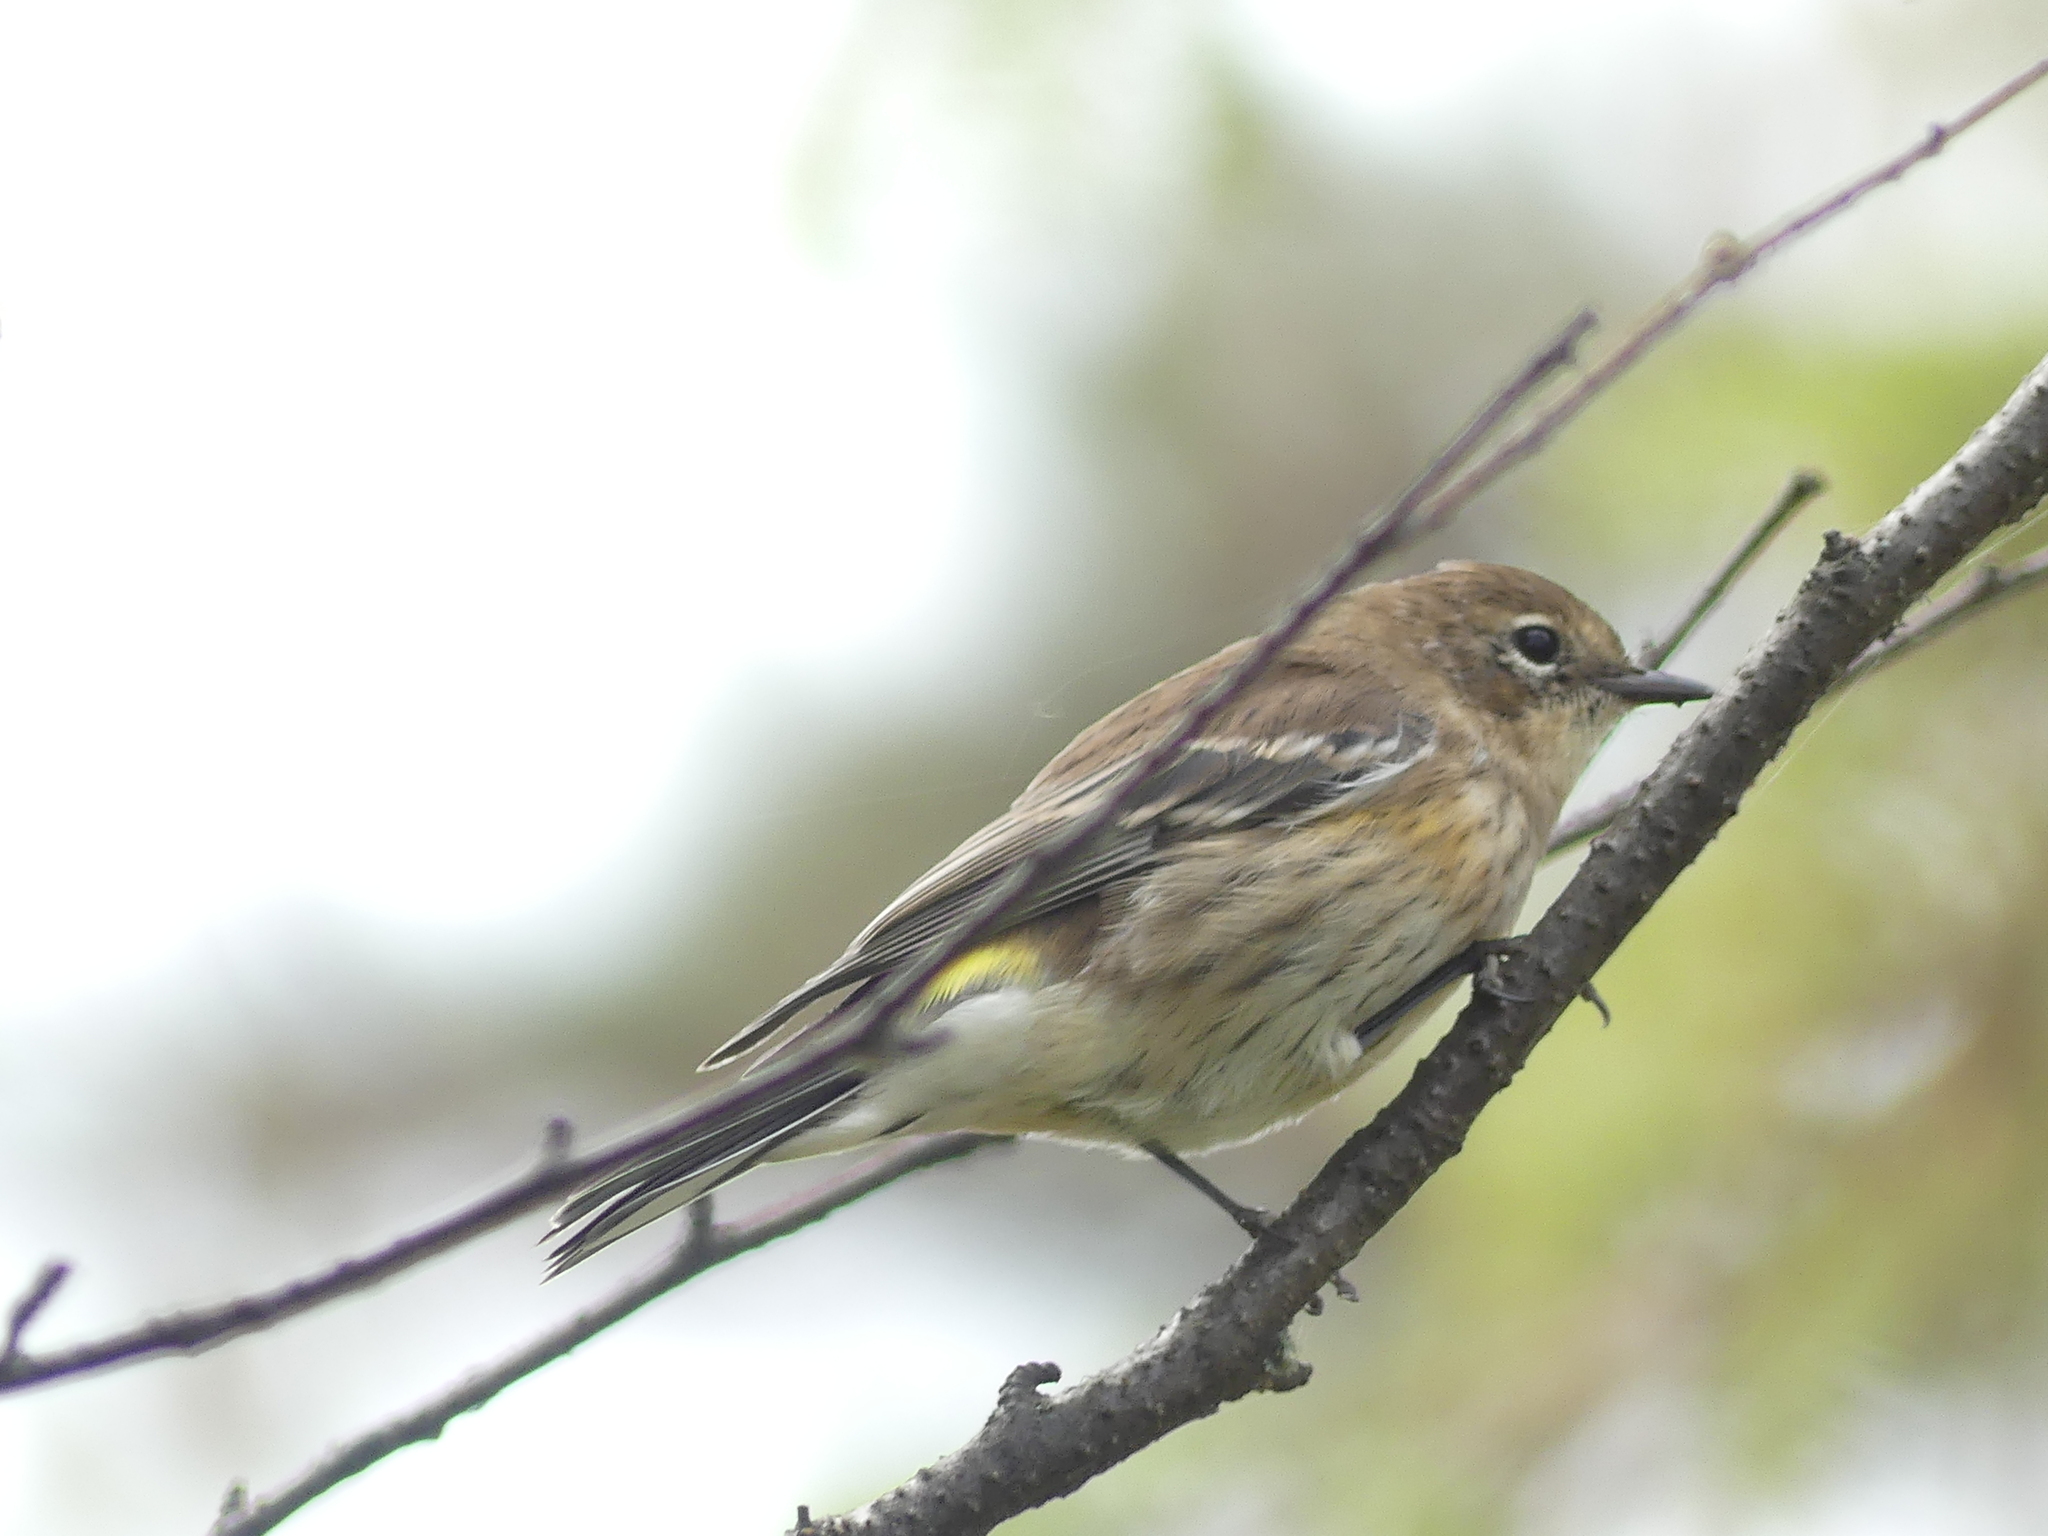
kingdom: Animalia
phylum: Chordata
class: Aves
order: Passeriformes
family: Parulidae
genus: Setophaga
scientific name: Setophaga coronata
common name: Myrtle warbler
